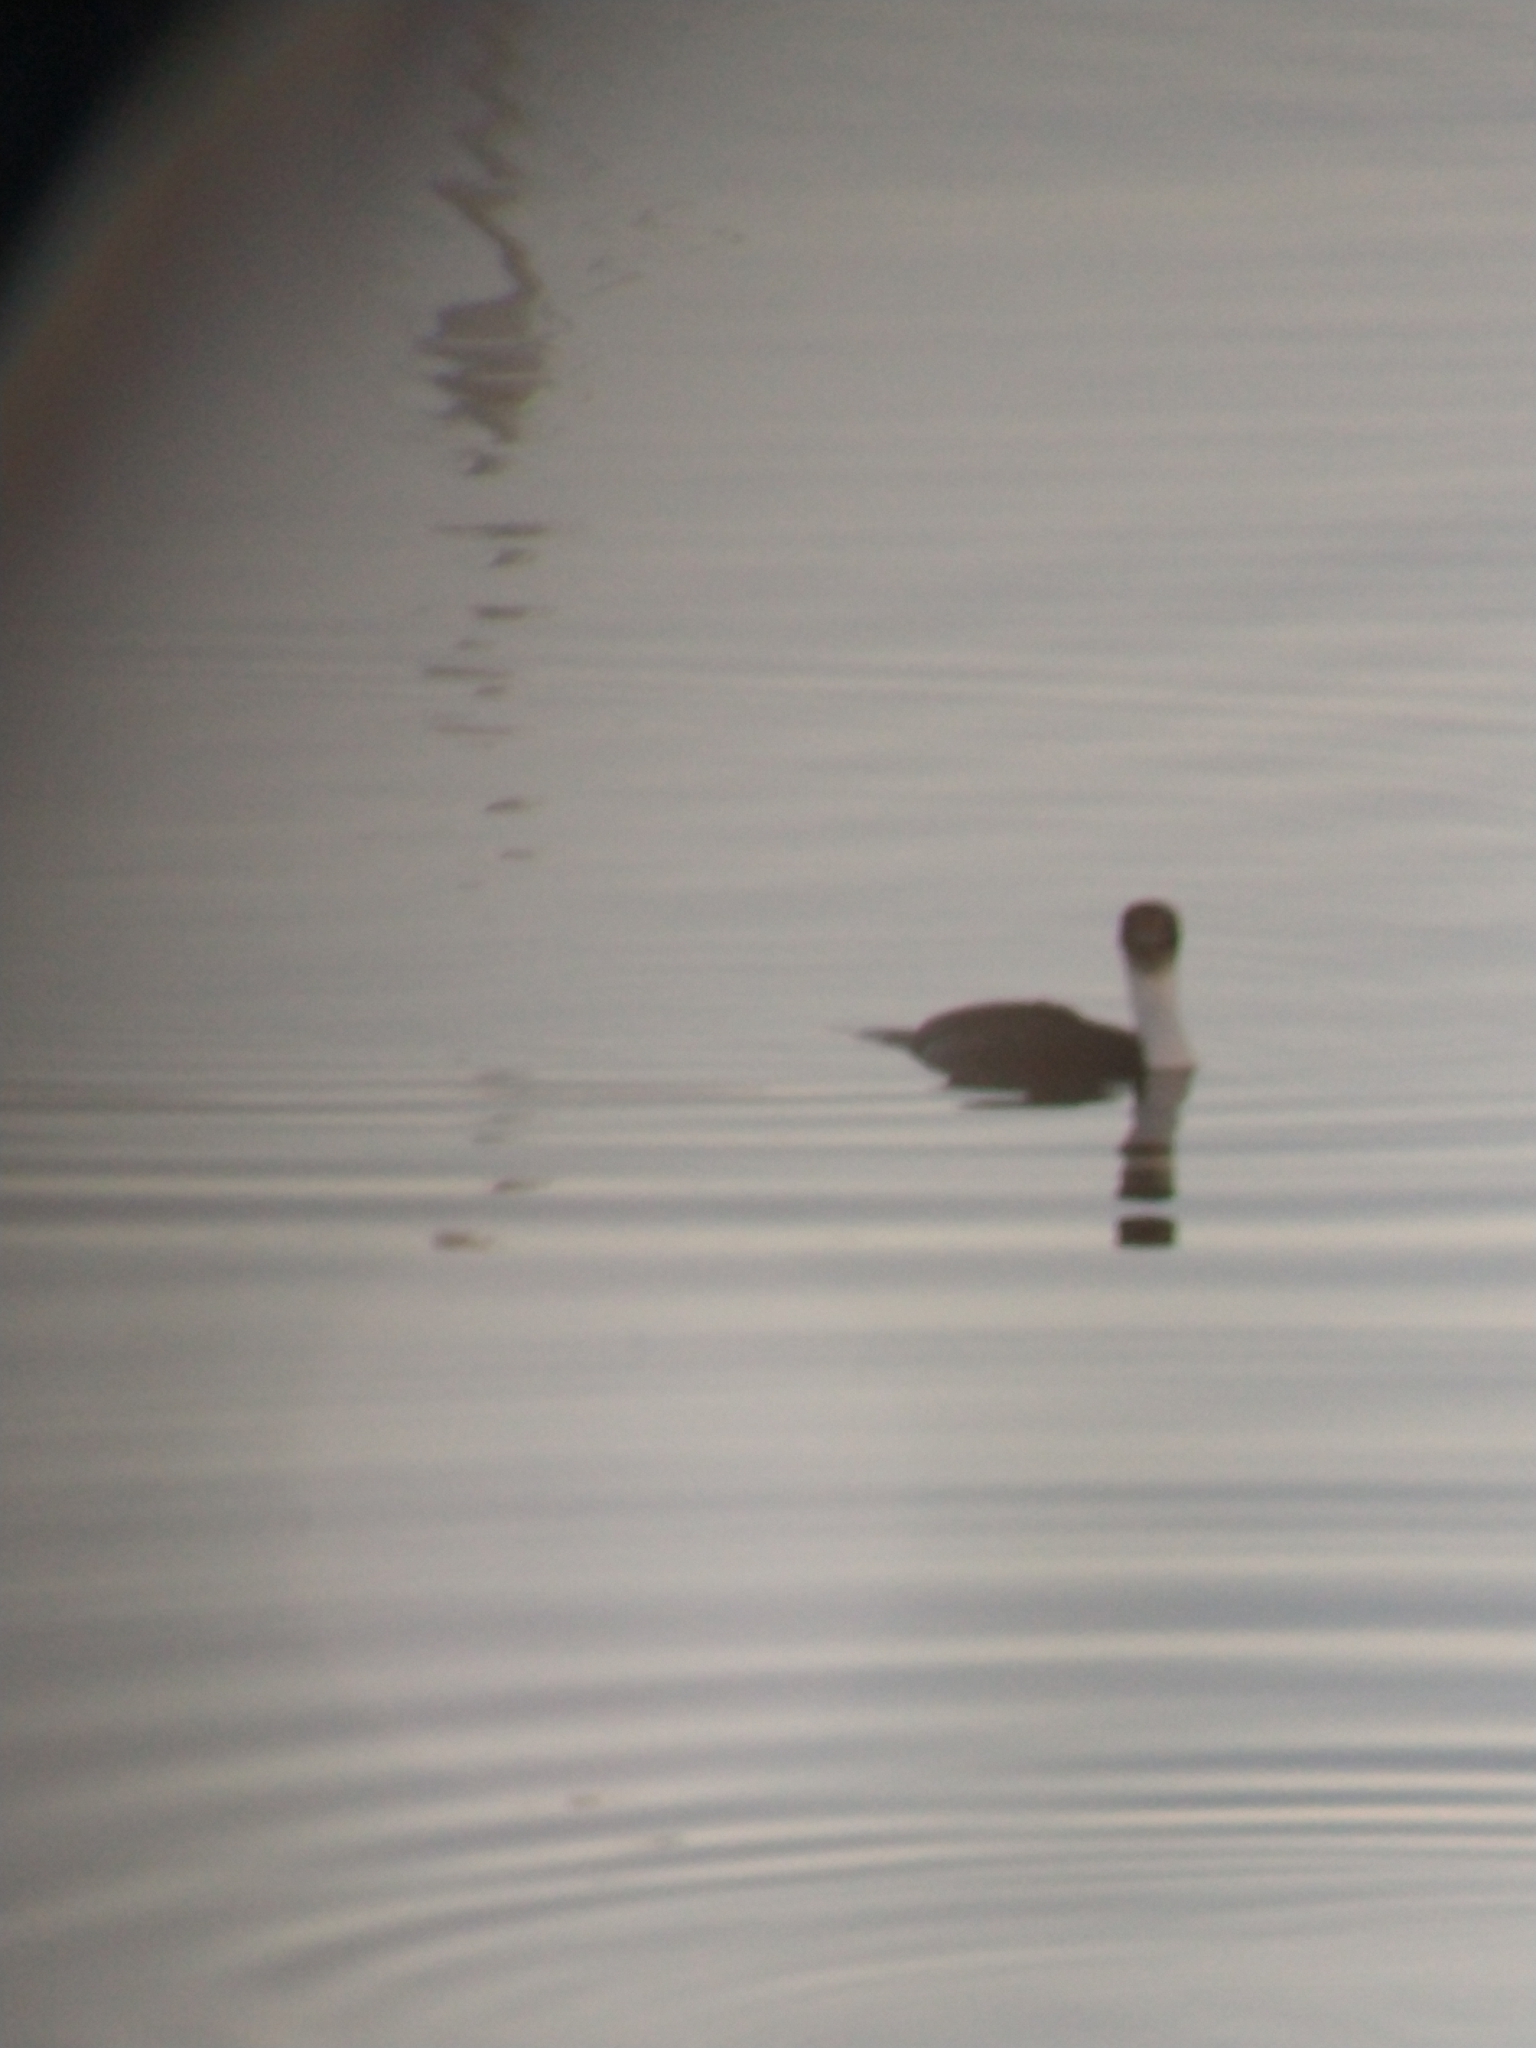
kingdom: Animalia
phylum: Chordata
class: Aves
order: Suliformes
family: Phalacrocoracidae
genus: Leucocarbo
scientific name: Leucocarbo atriceps
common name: Imperial shag
